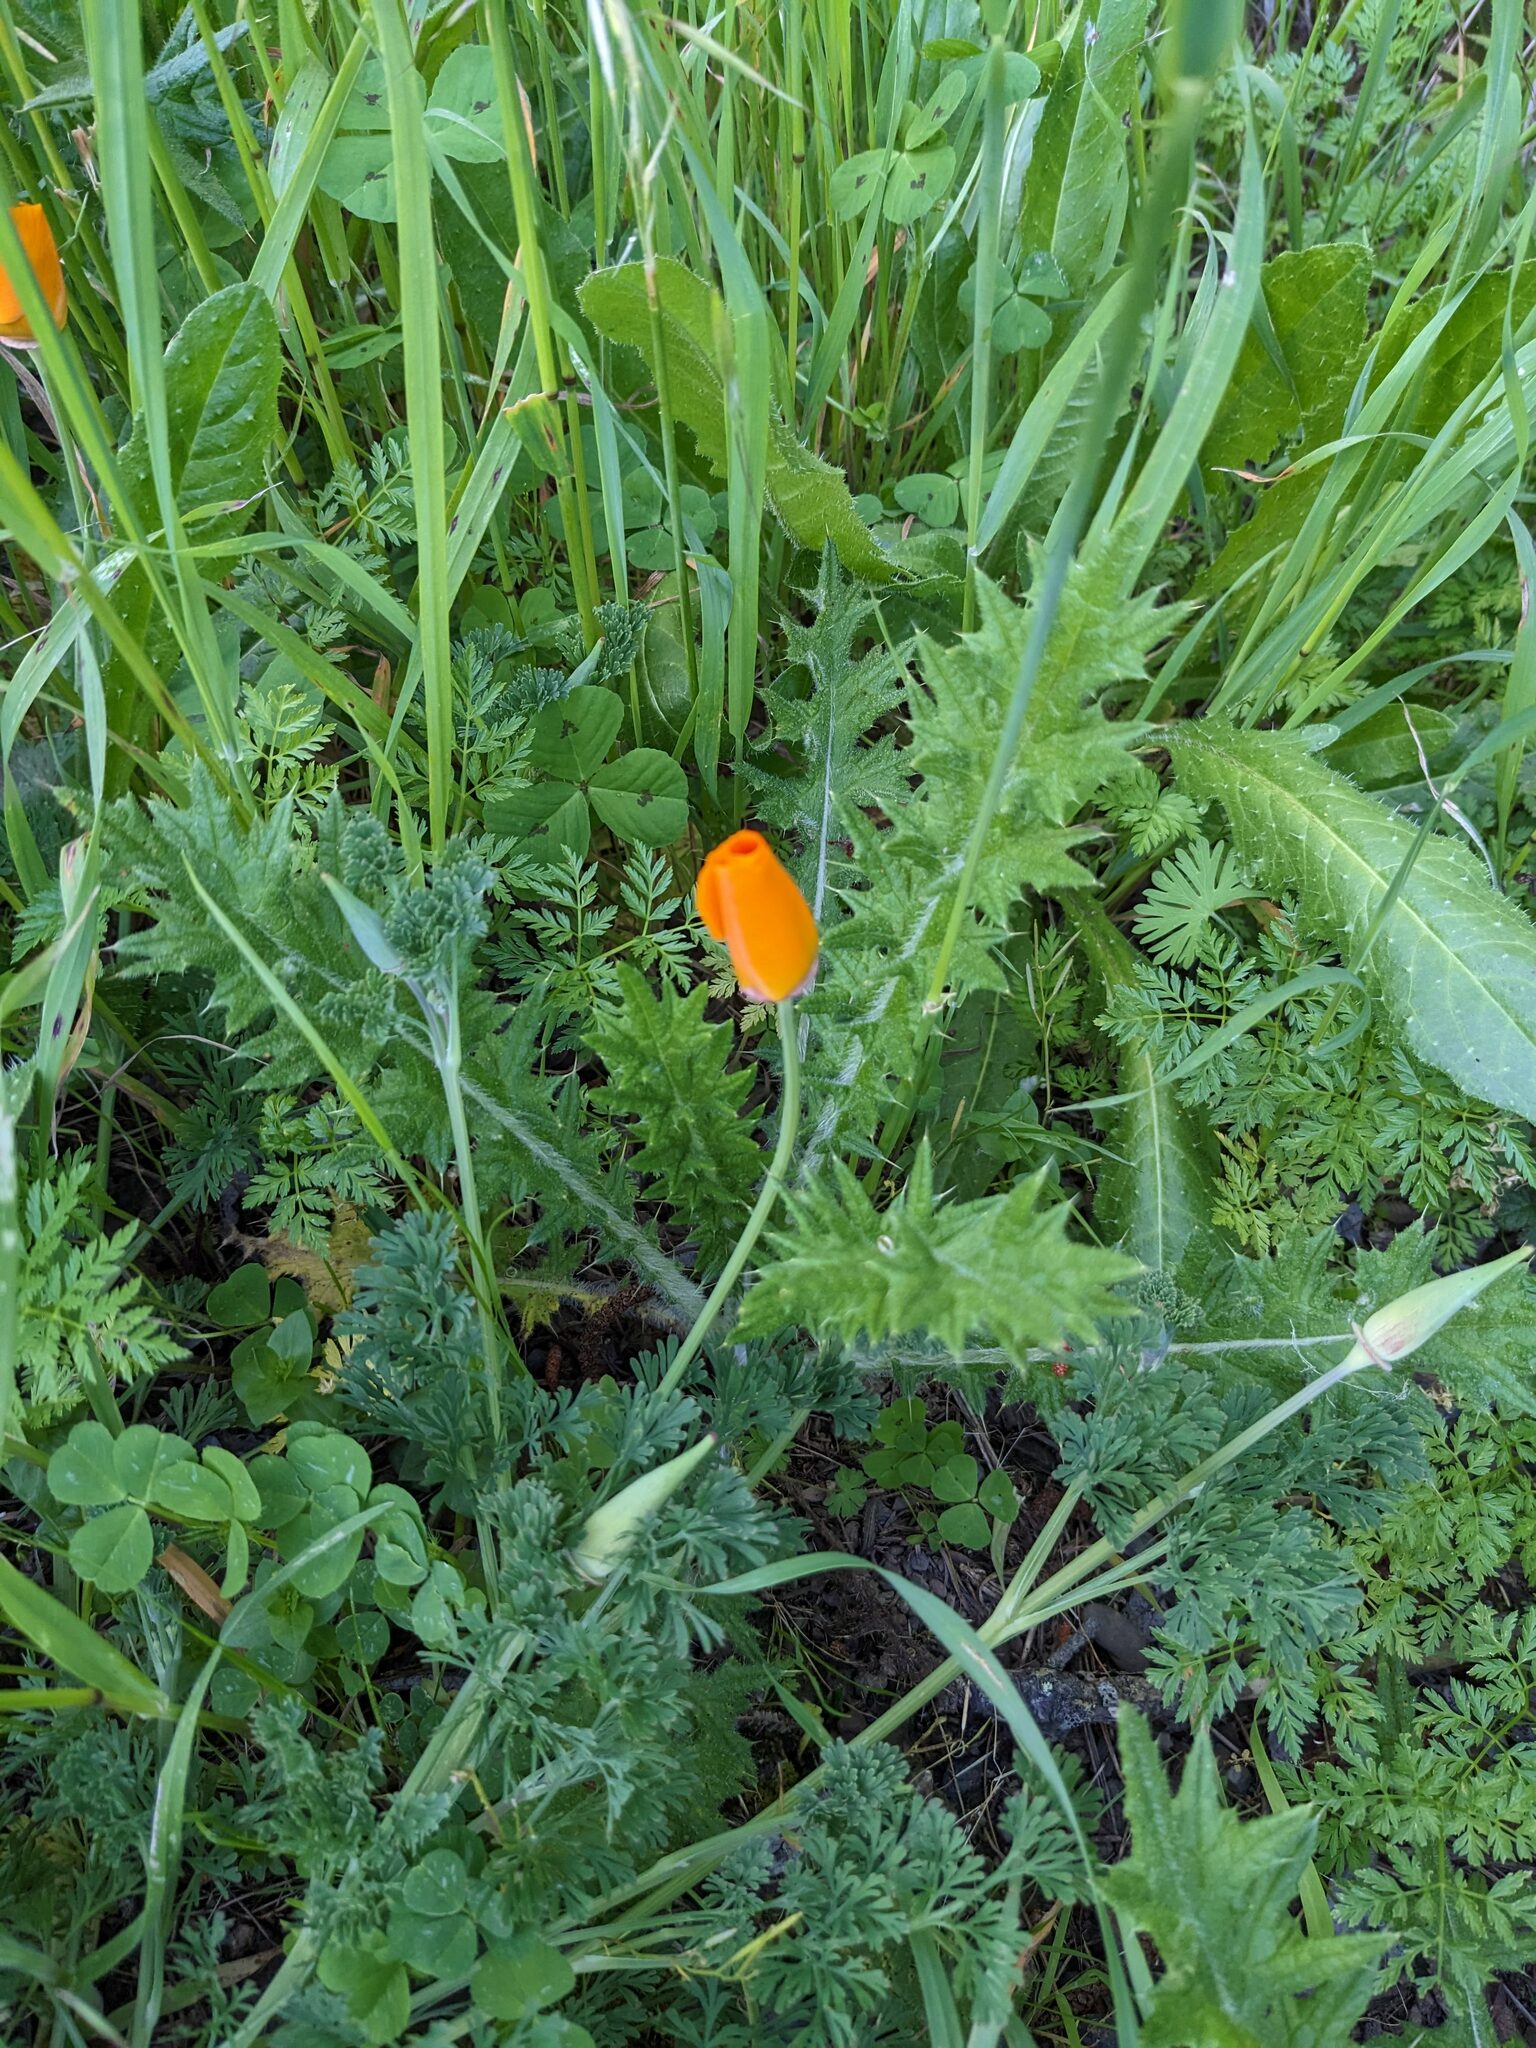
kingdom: Plantae
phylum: Tracheophyta
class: Magnoliopsida
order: Ranunculales
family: Papaveraceae
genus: Eschscholzia
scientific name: Eschscholzia californica
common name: California poppy
